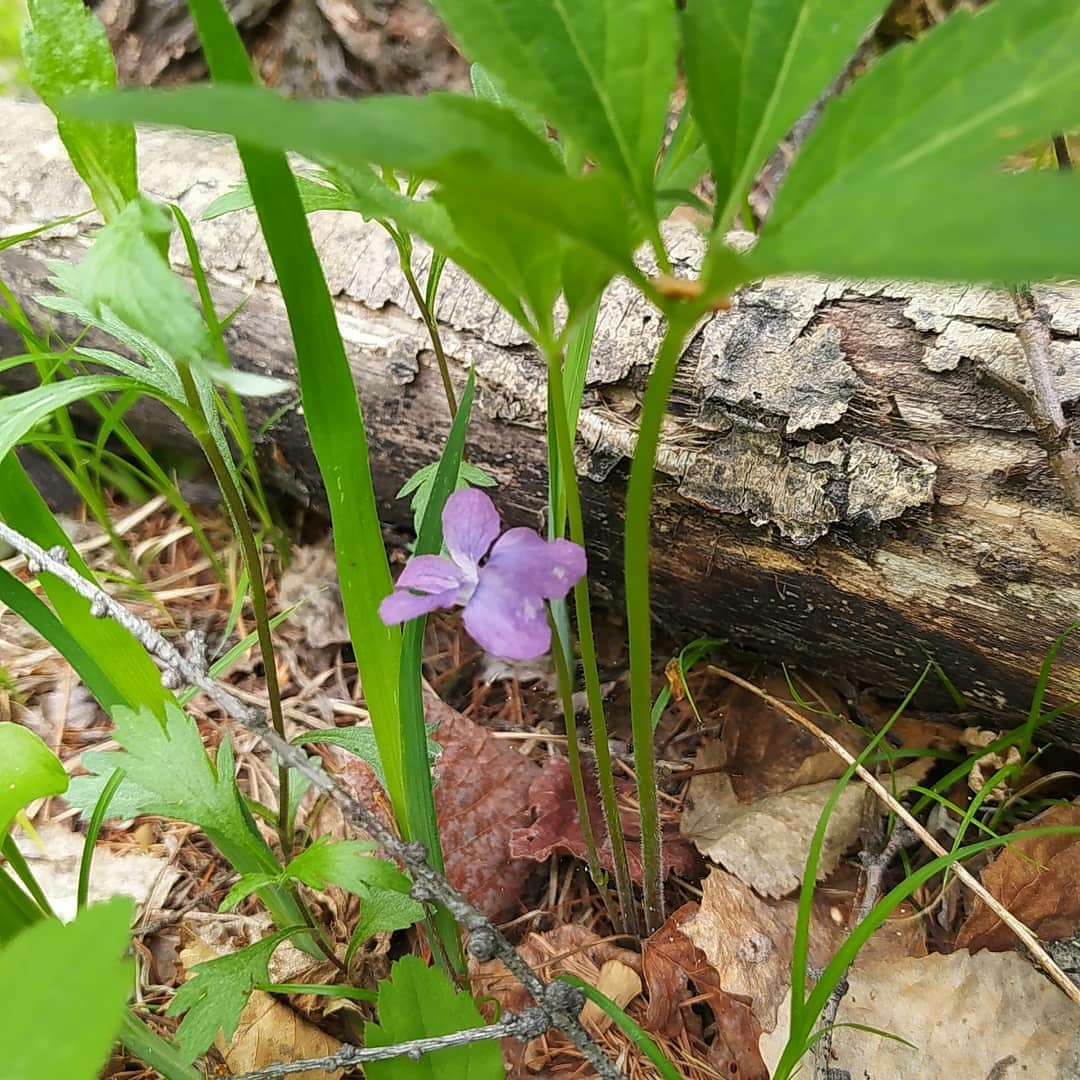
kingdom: Plantae
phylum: Tracheophyta
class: Magnoliopsida
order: Malpighiales
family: Violaceae
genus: Viola
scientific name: Viola dactyloides
